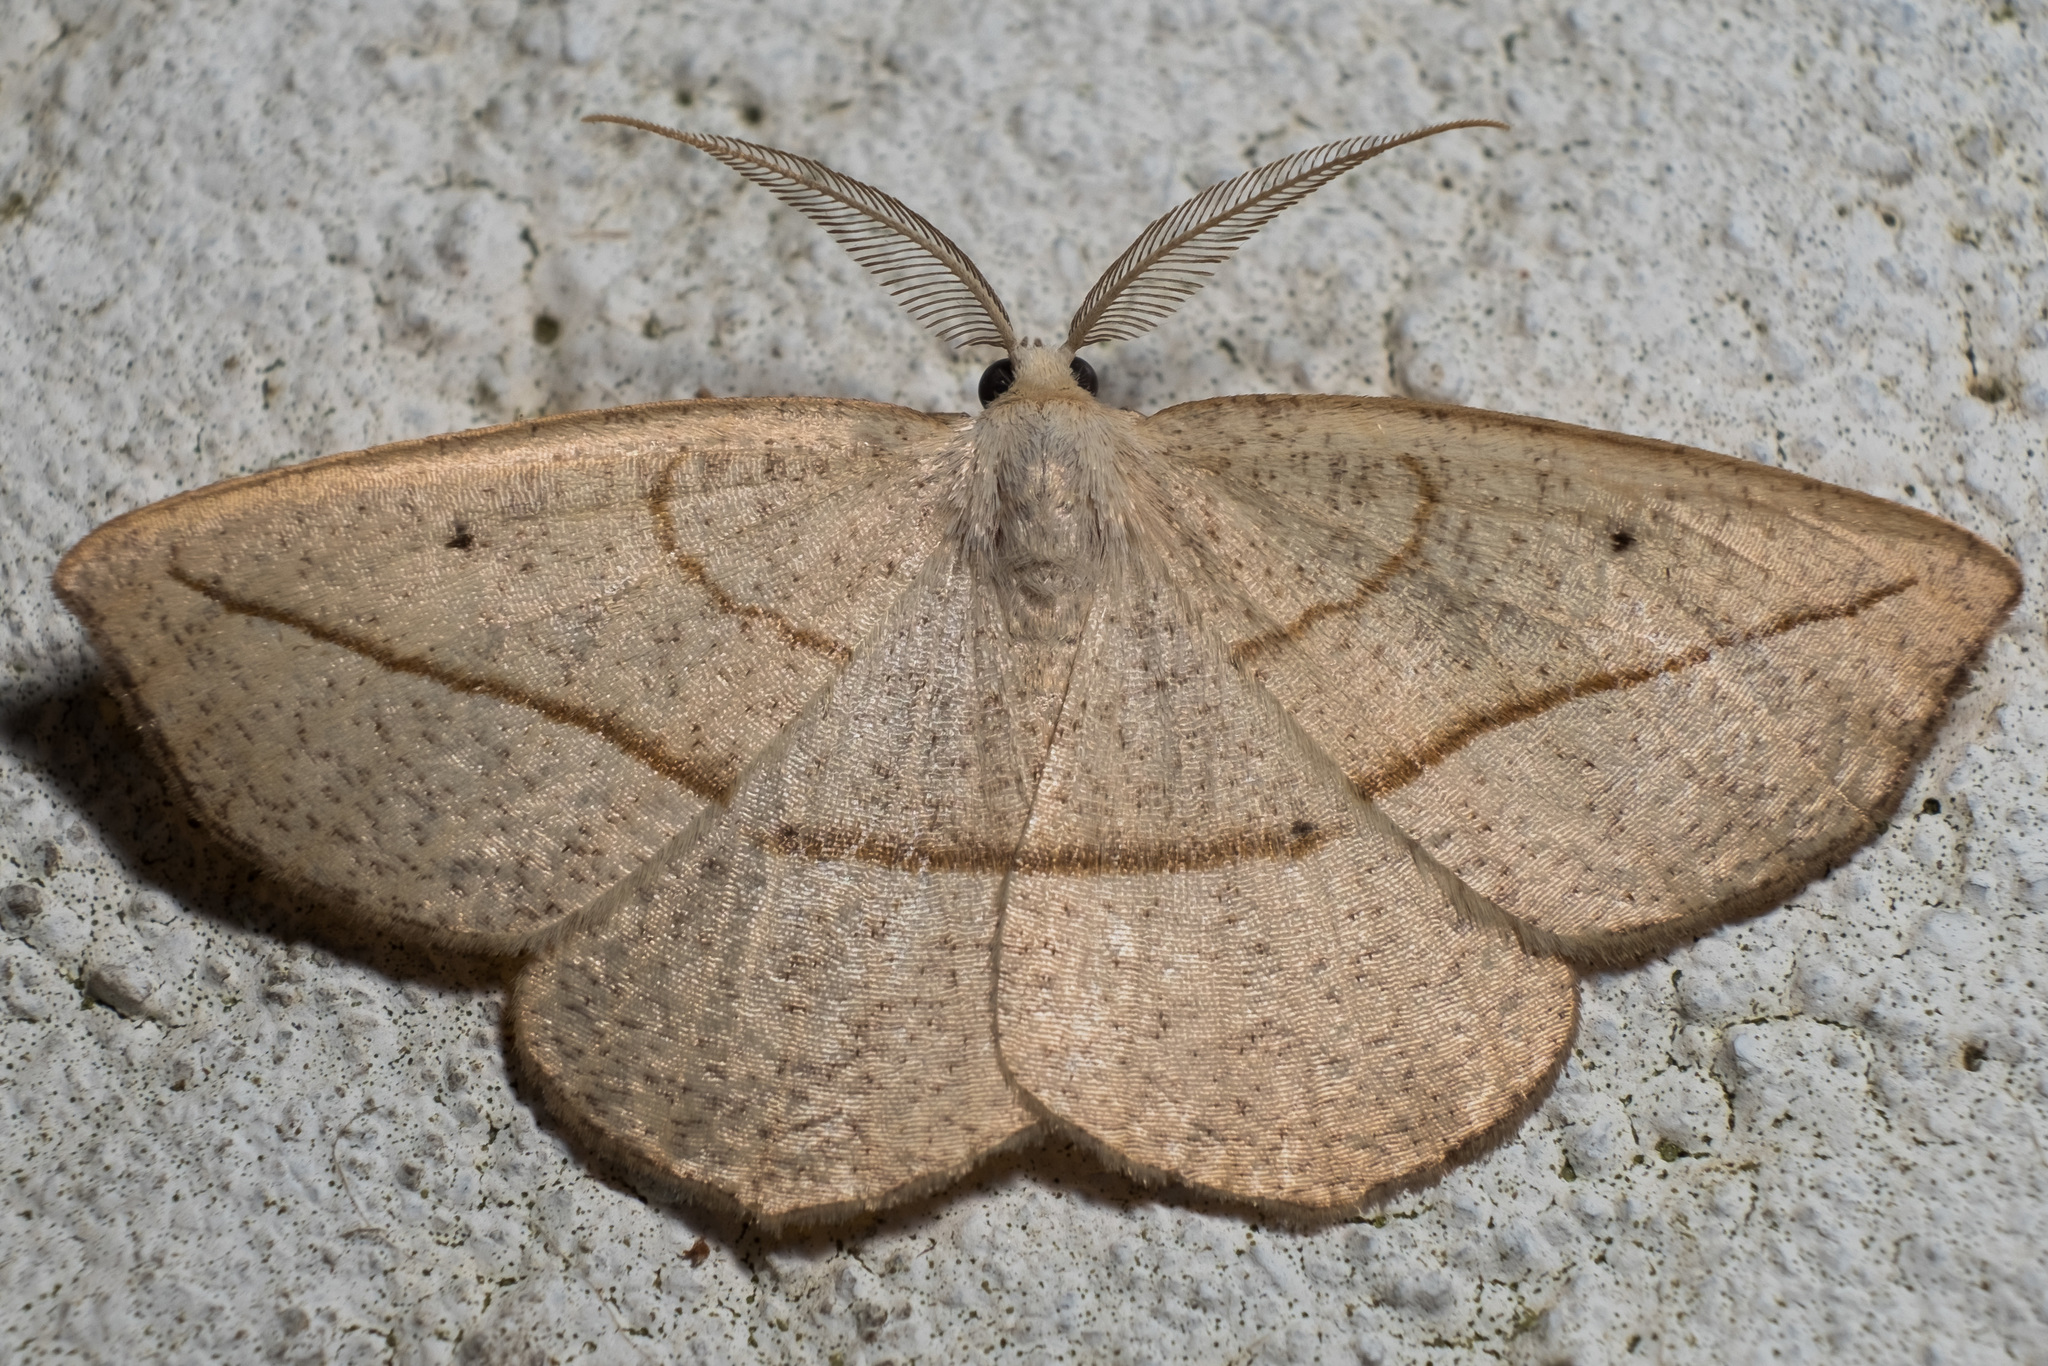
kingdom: Animalia
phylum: Arthropoda
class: Insecta
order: Lepidoptera
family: Geometridae
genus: Eusarca
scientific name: Eusarca confusaria
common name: Confused eusarca
